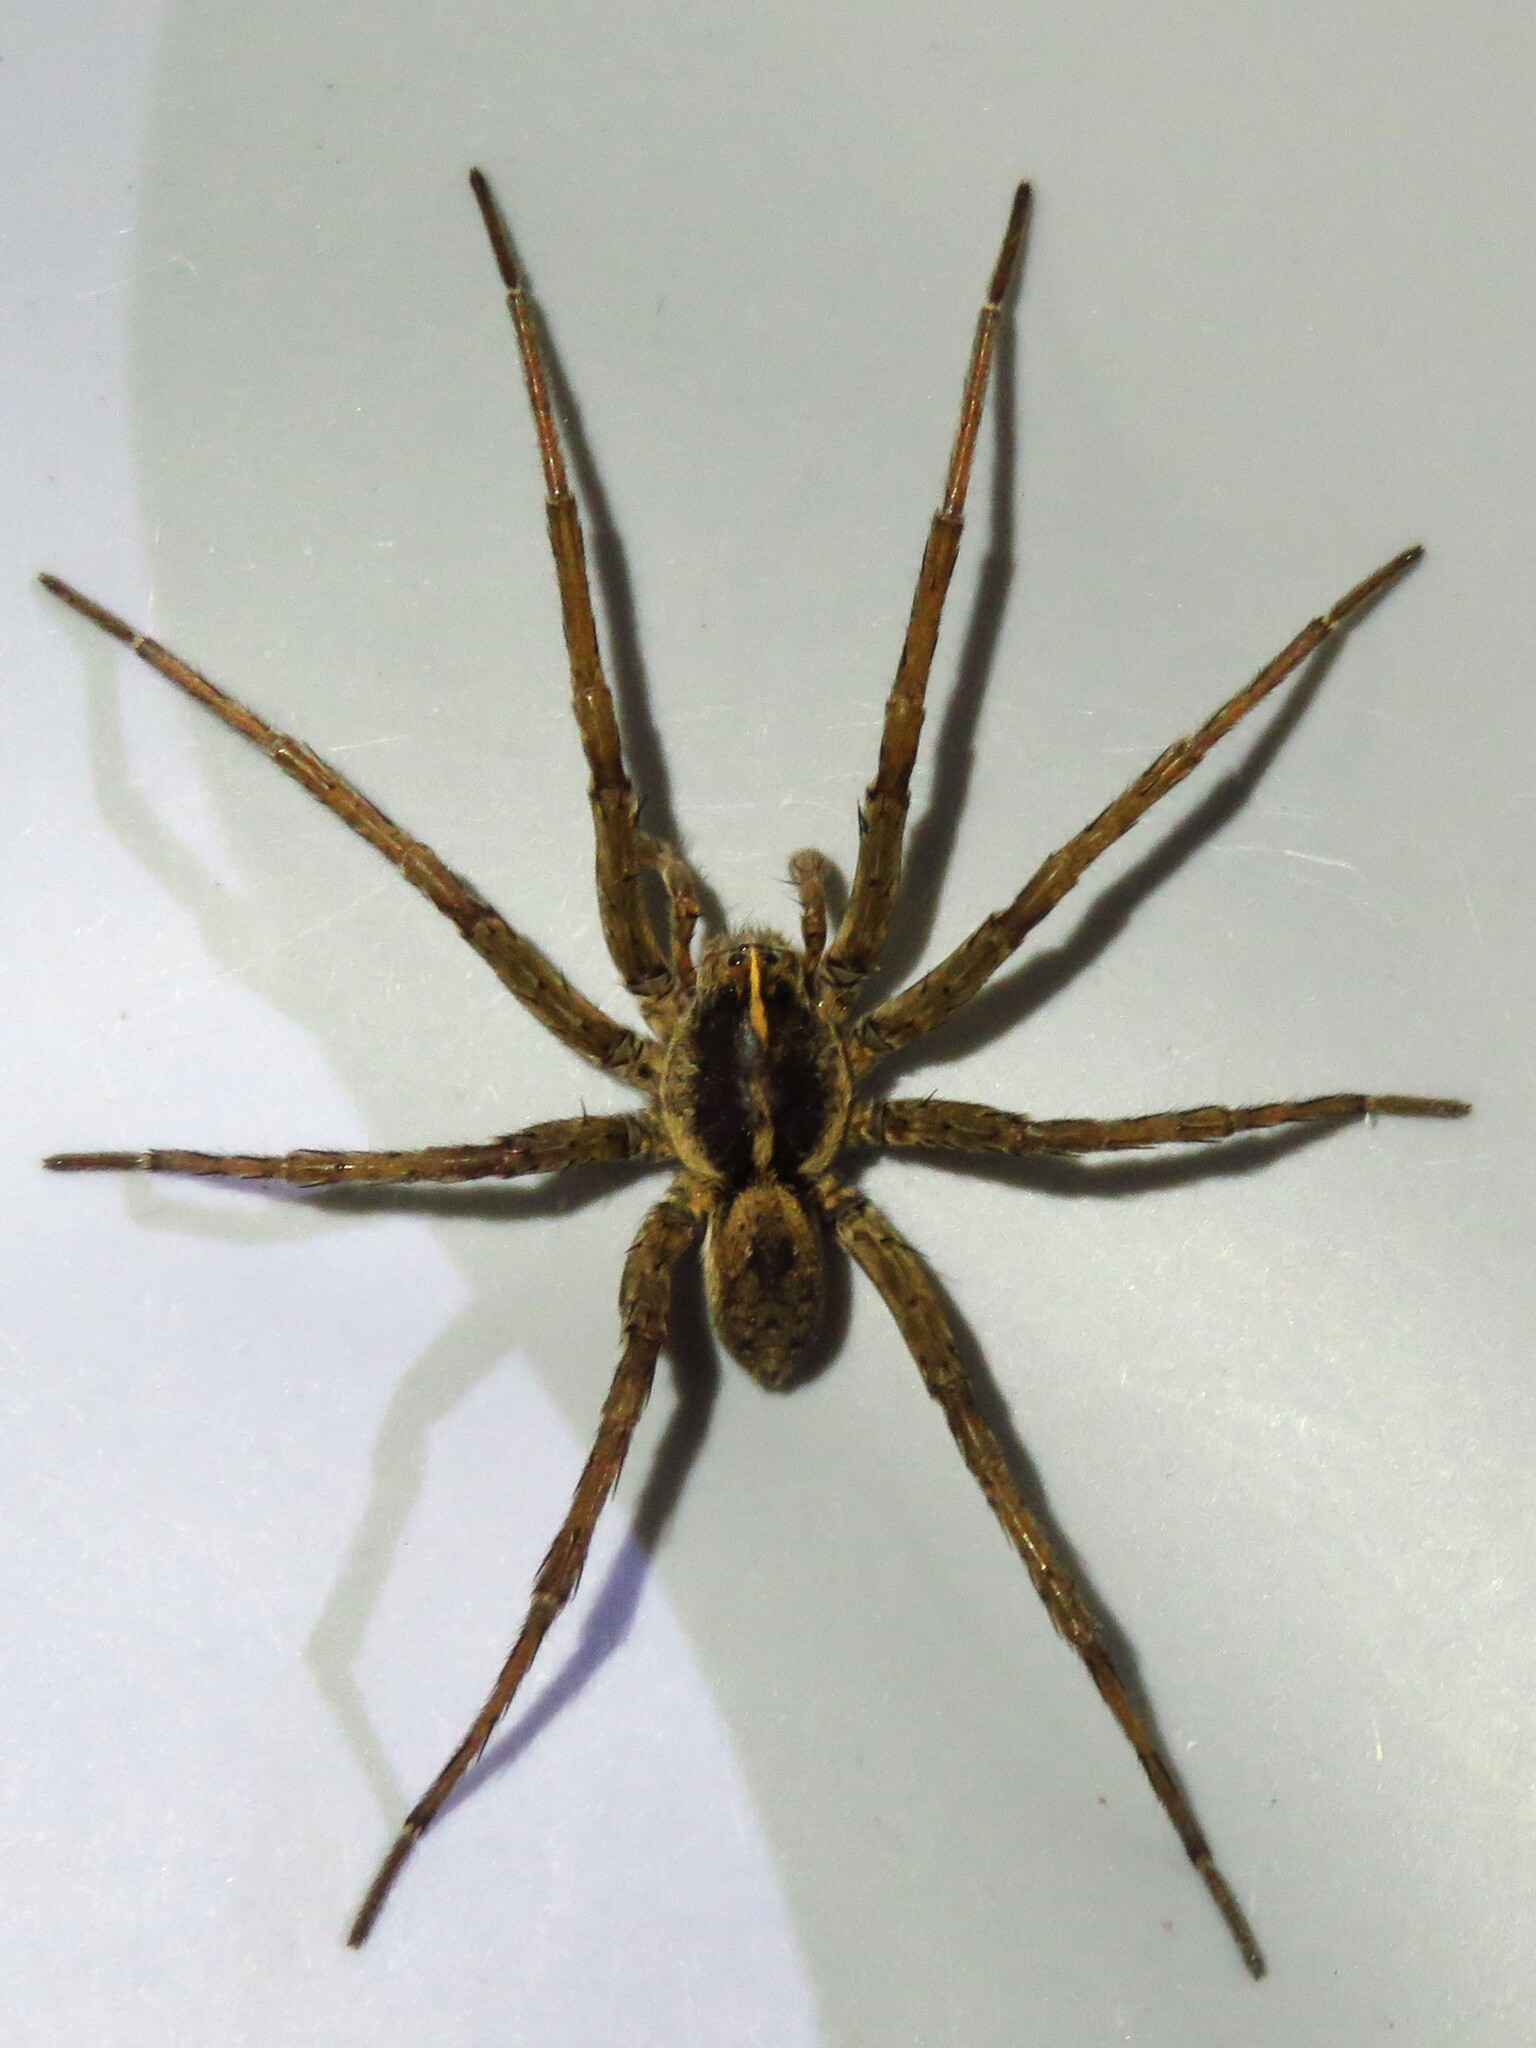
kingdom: Animalia
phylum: Arthropoda
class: Arachnida
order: Araneae
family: Lycosidae
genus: Tigrosa
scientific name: Tigrosa aspersa
